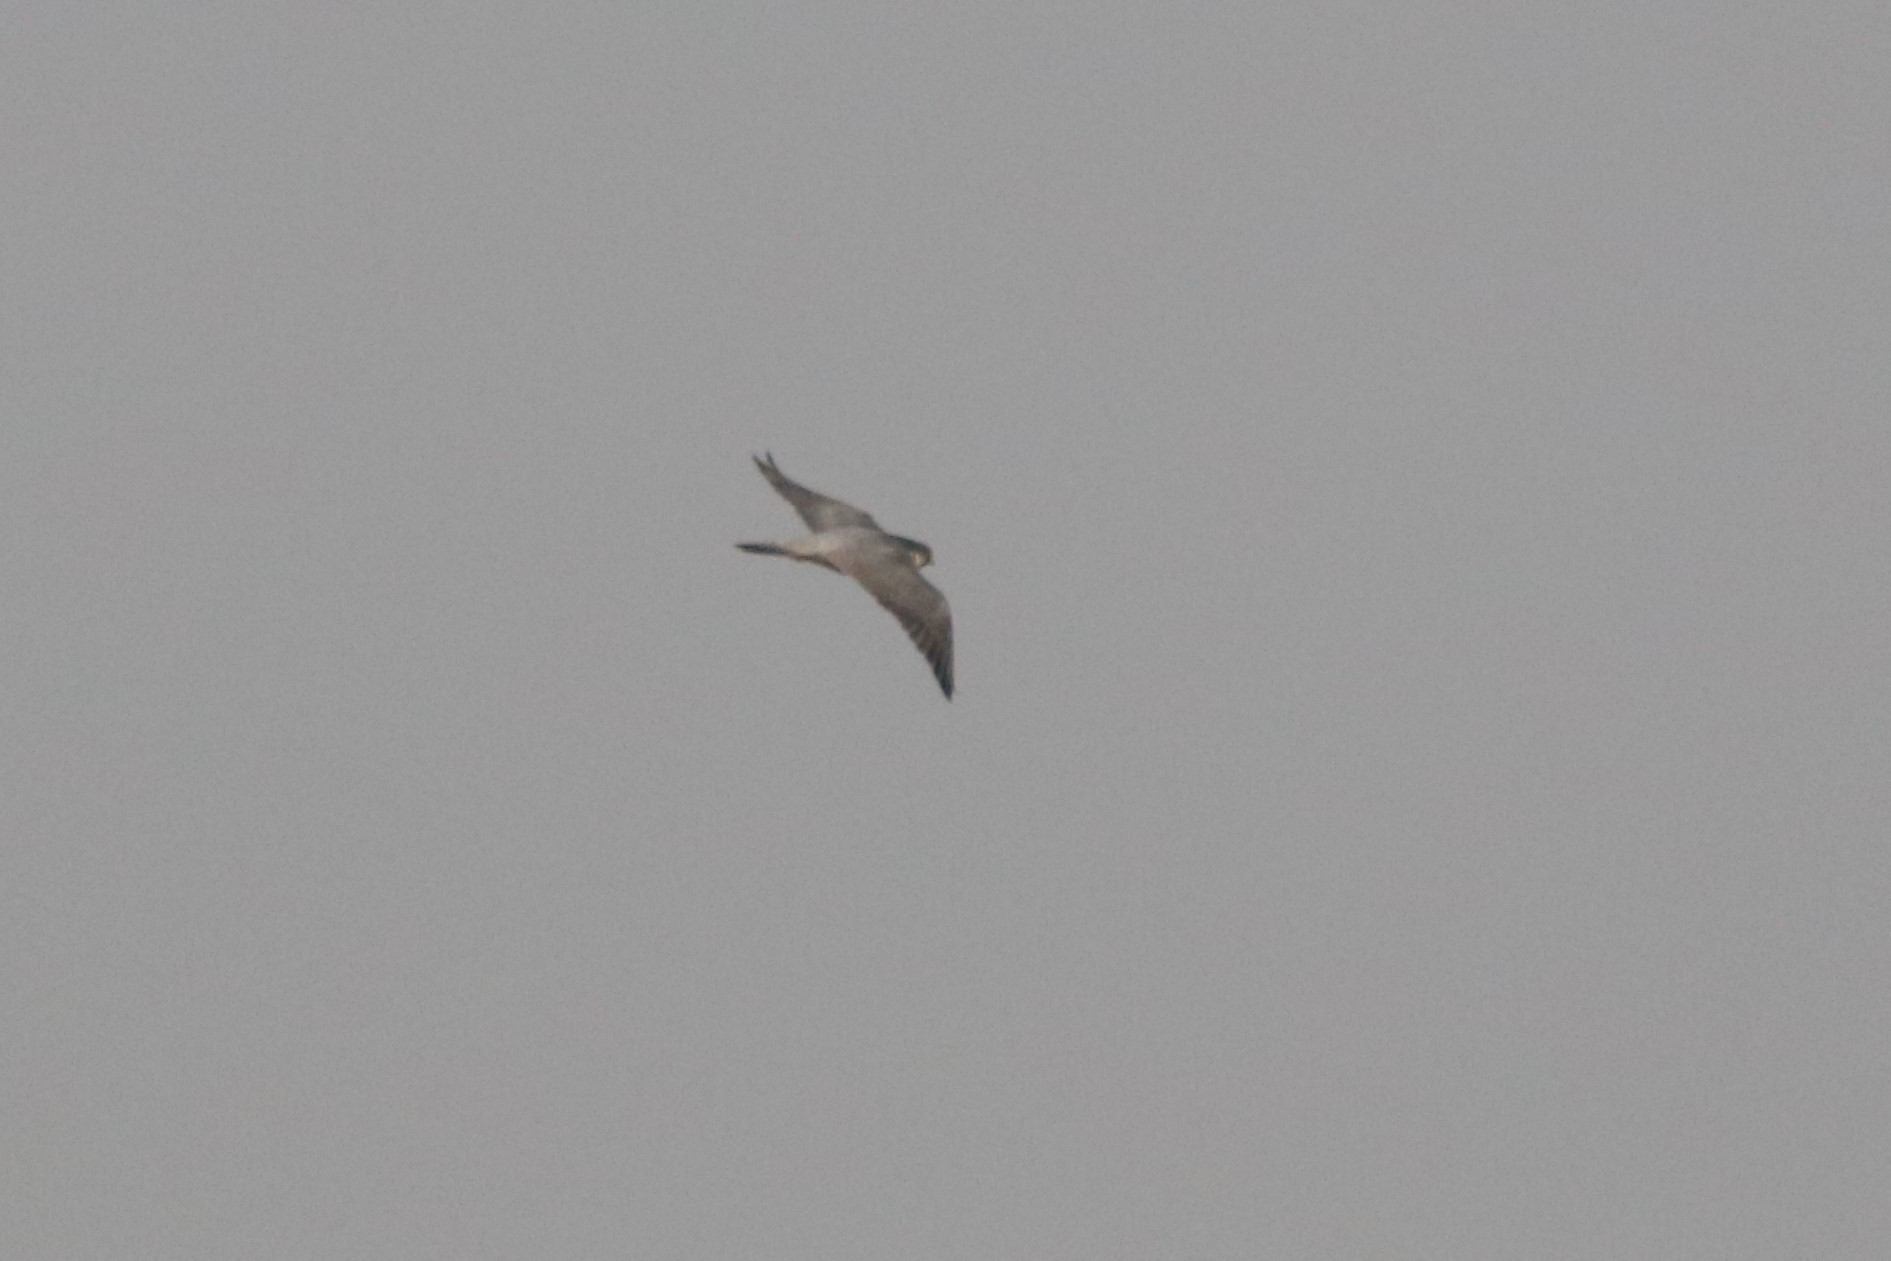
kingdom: Animalia
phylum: Chordata
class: Aves
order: Falconiformes
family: Falconidae
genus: Falco
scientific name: Falco peregrinus
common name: Peregrine falcon
